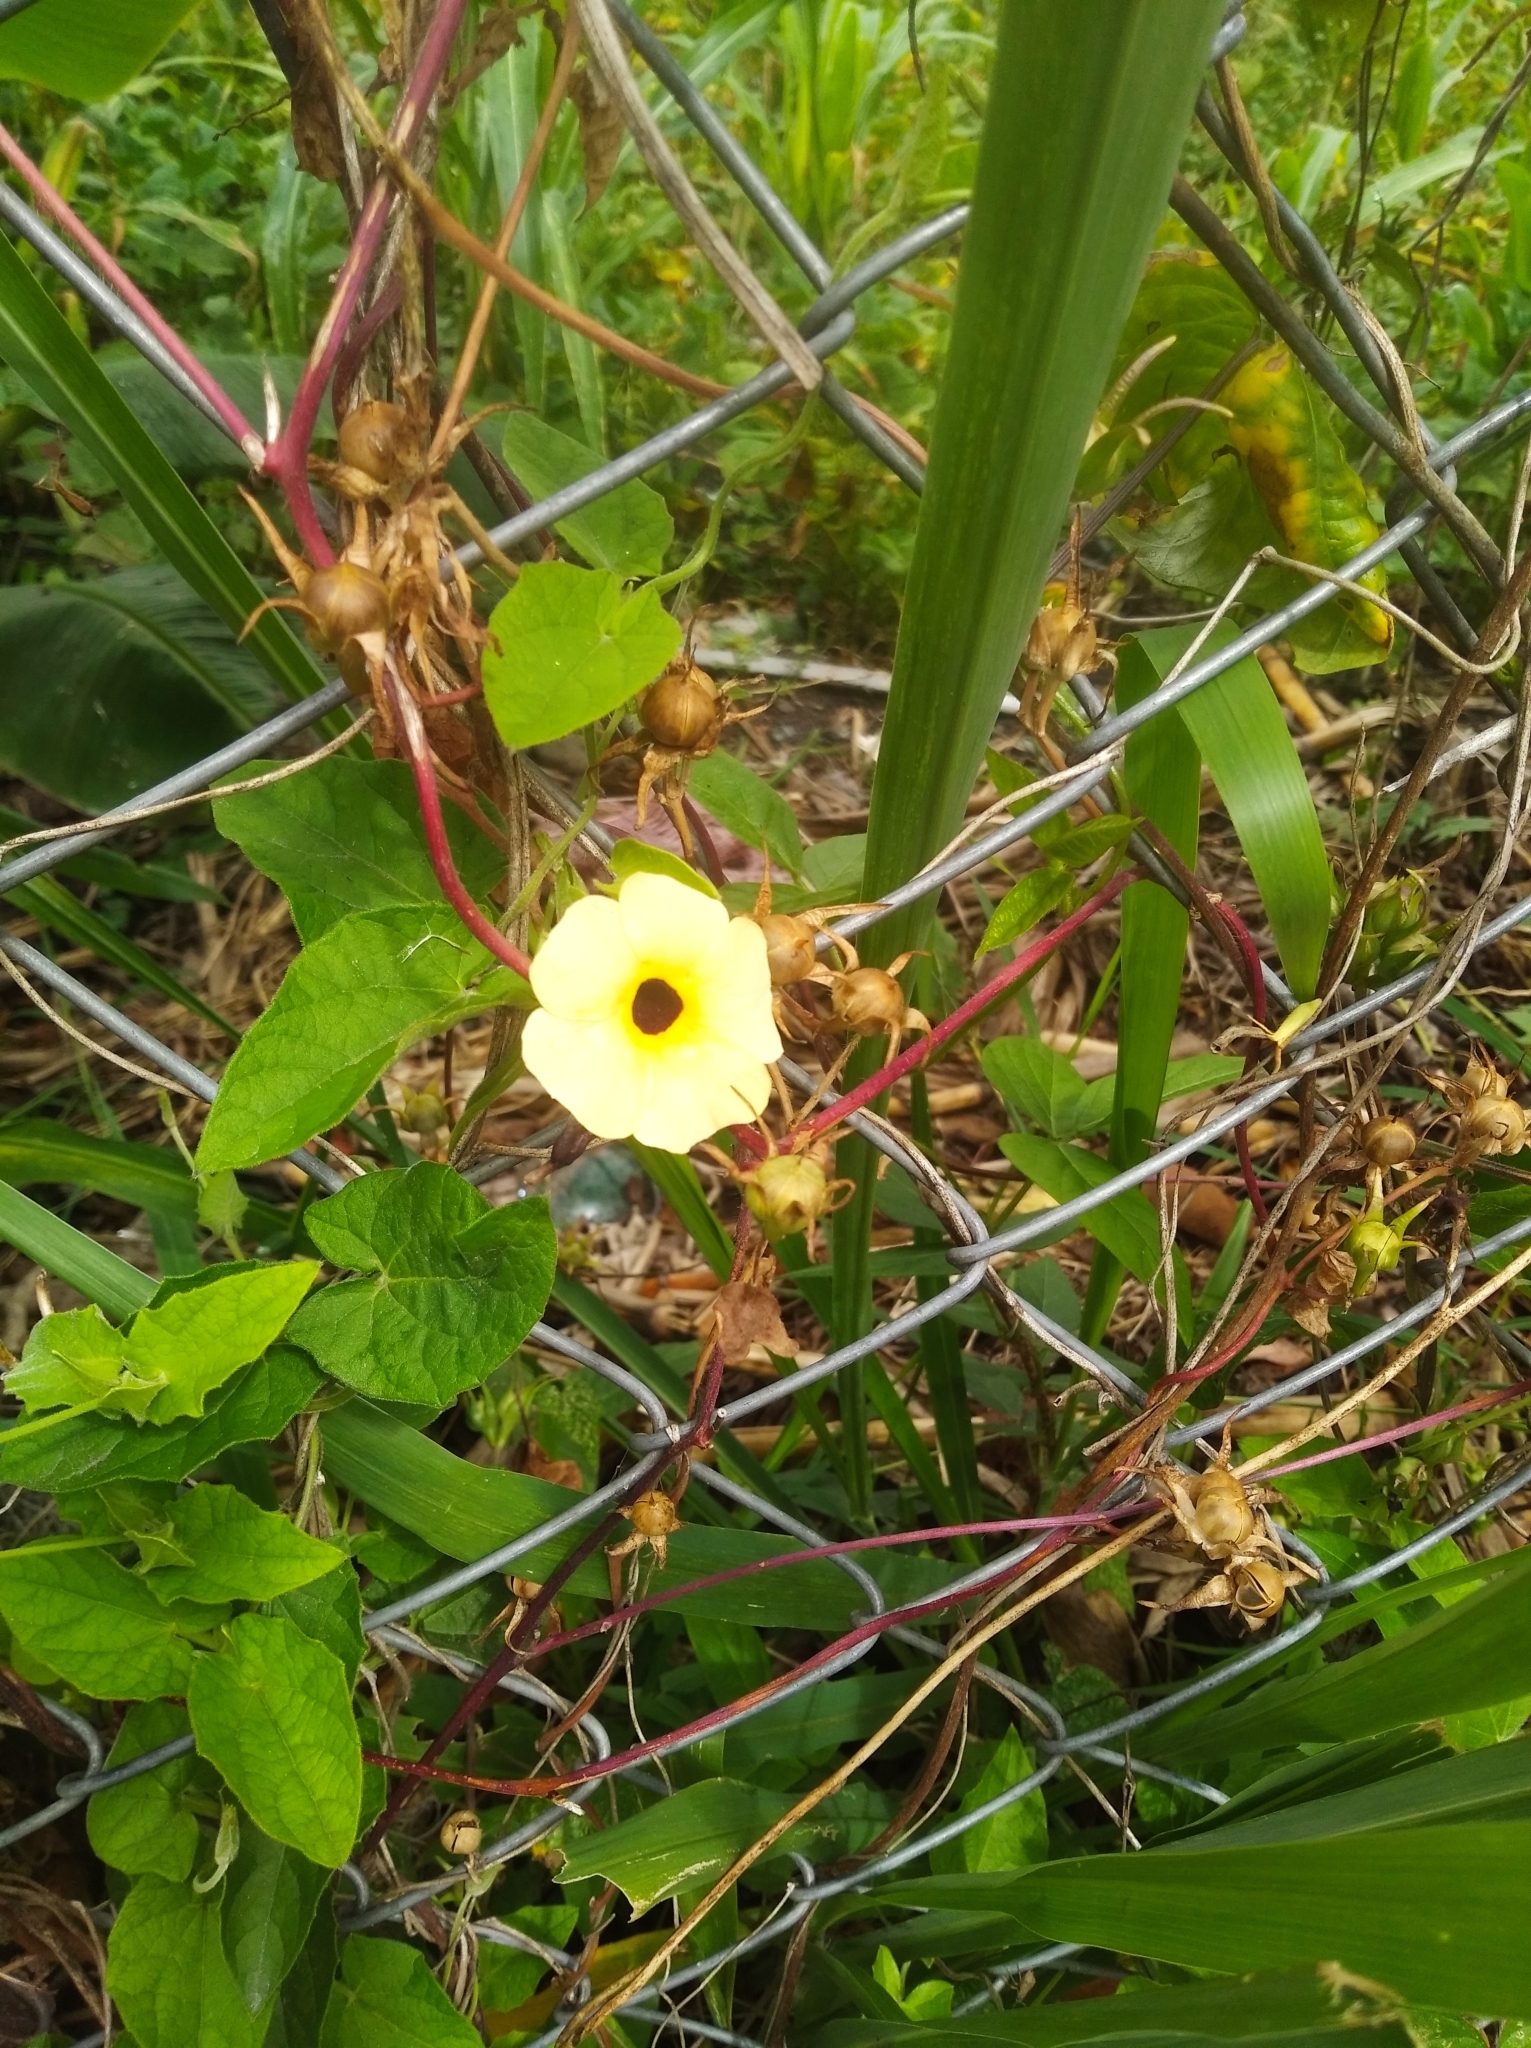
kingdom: Plantae
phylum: Tracheophyta
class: Magnoliopsida
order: Lamiales
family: Acanthaceae
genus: Thunbergia
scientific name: Thunbergia alata
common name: Blackeyed susan vine
